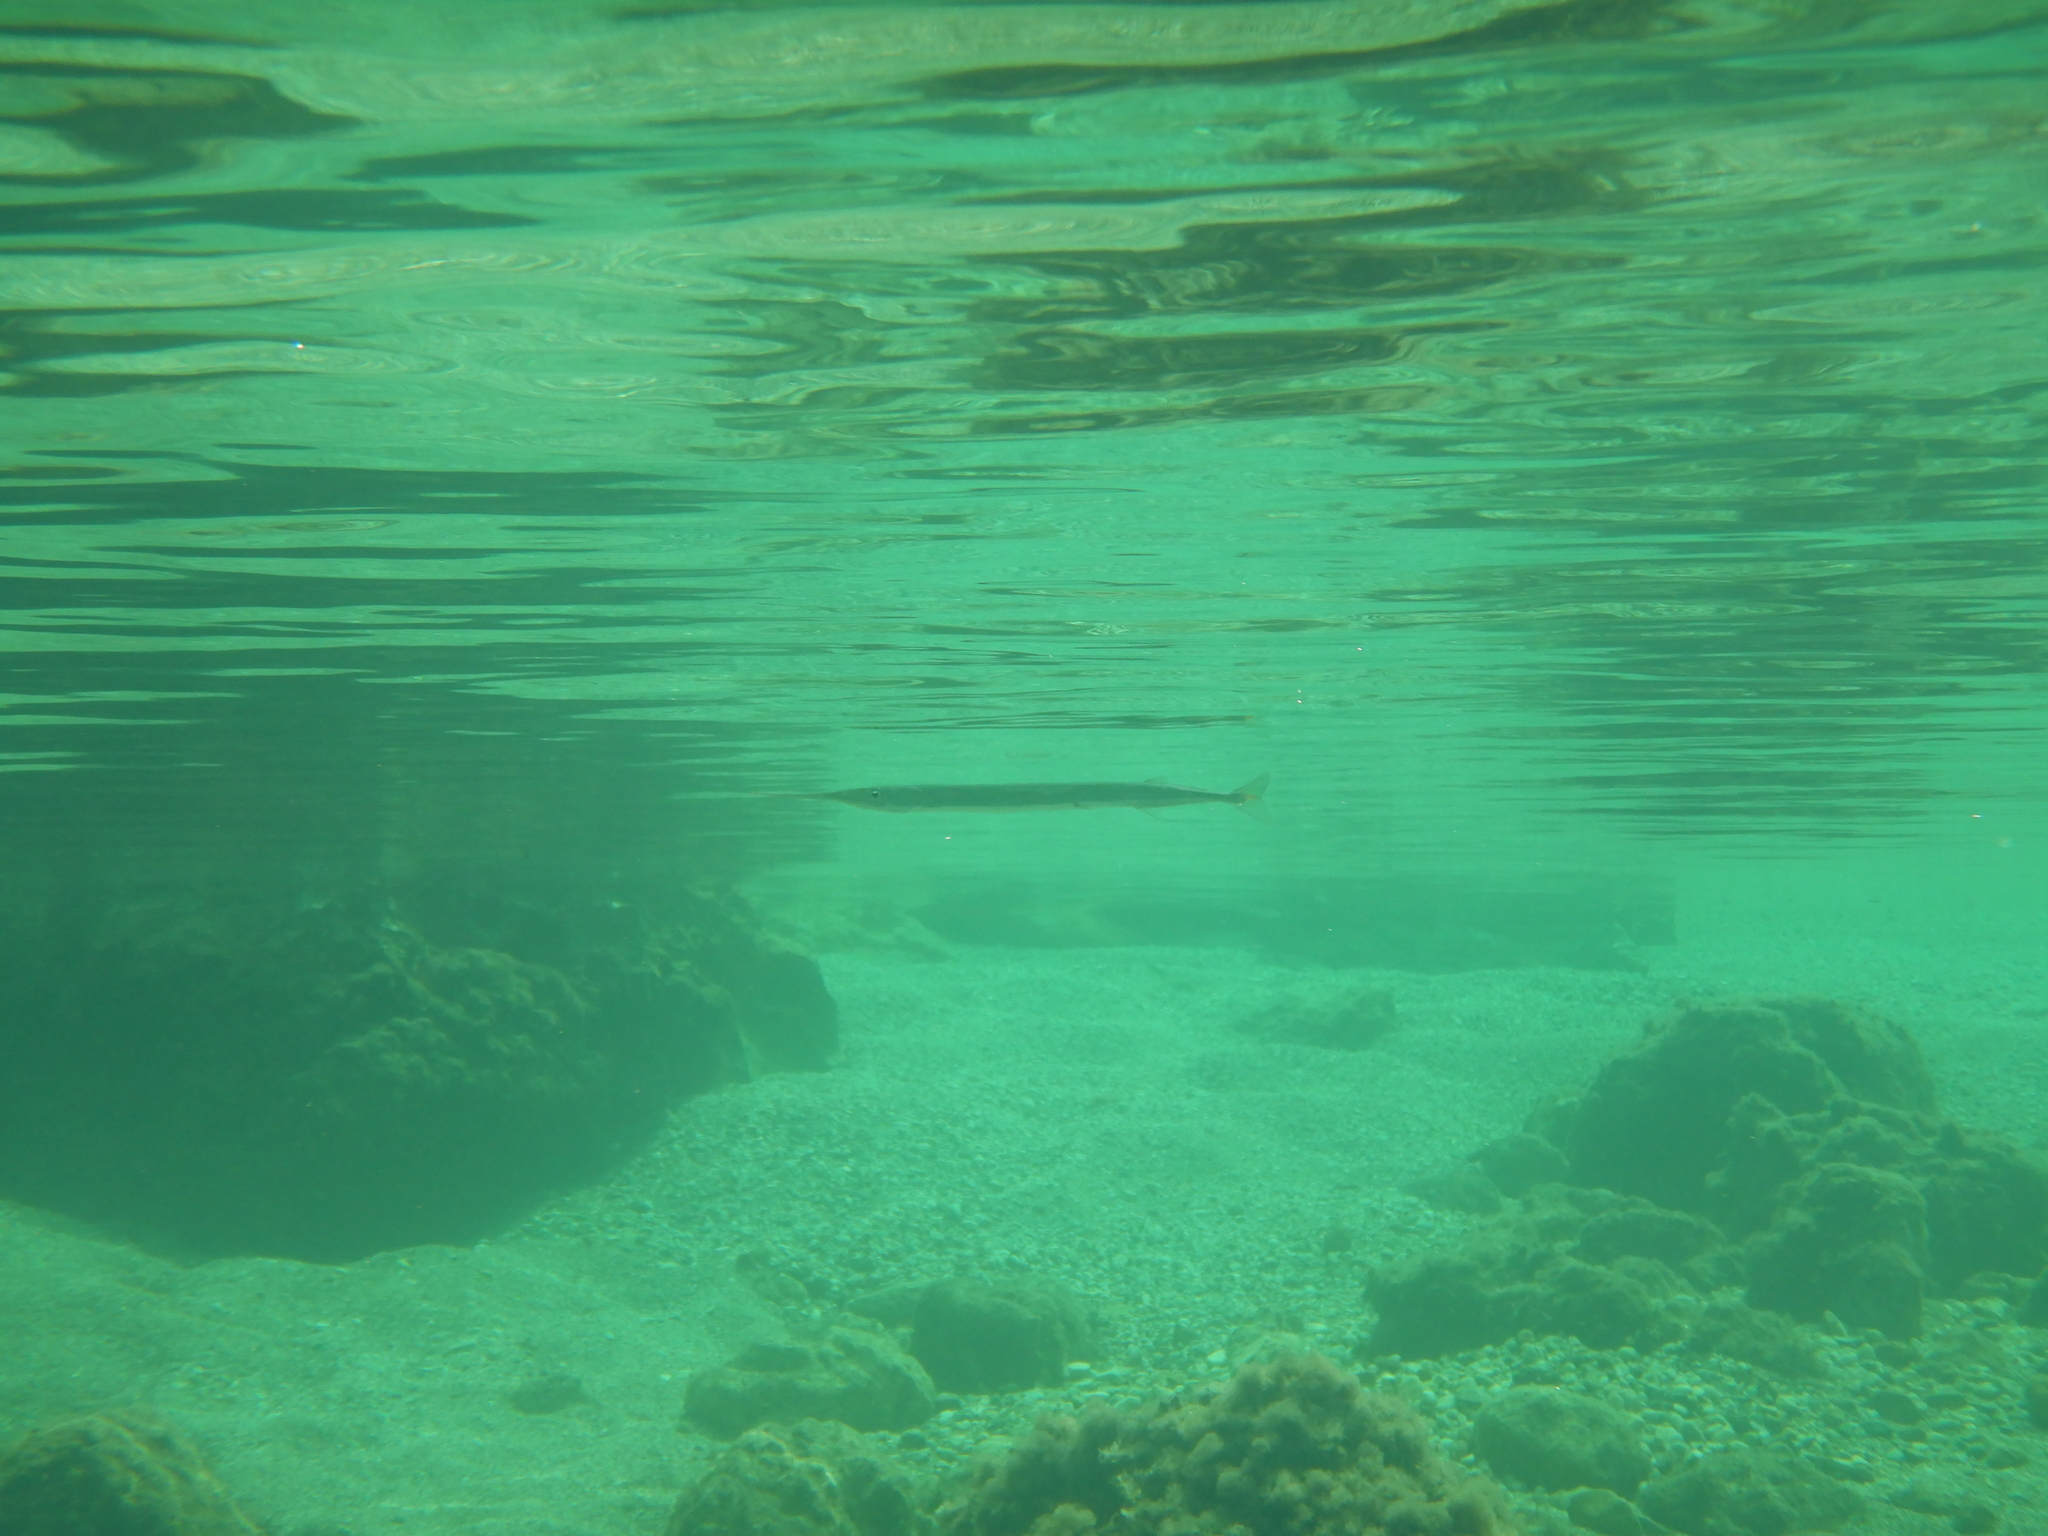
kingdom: Animalia
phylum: Chordata
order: Beloniformes
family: Belonidae
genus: Belone
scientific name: Belone belone
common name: Garfish
